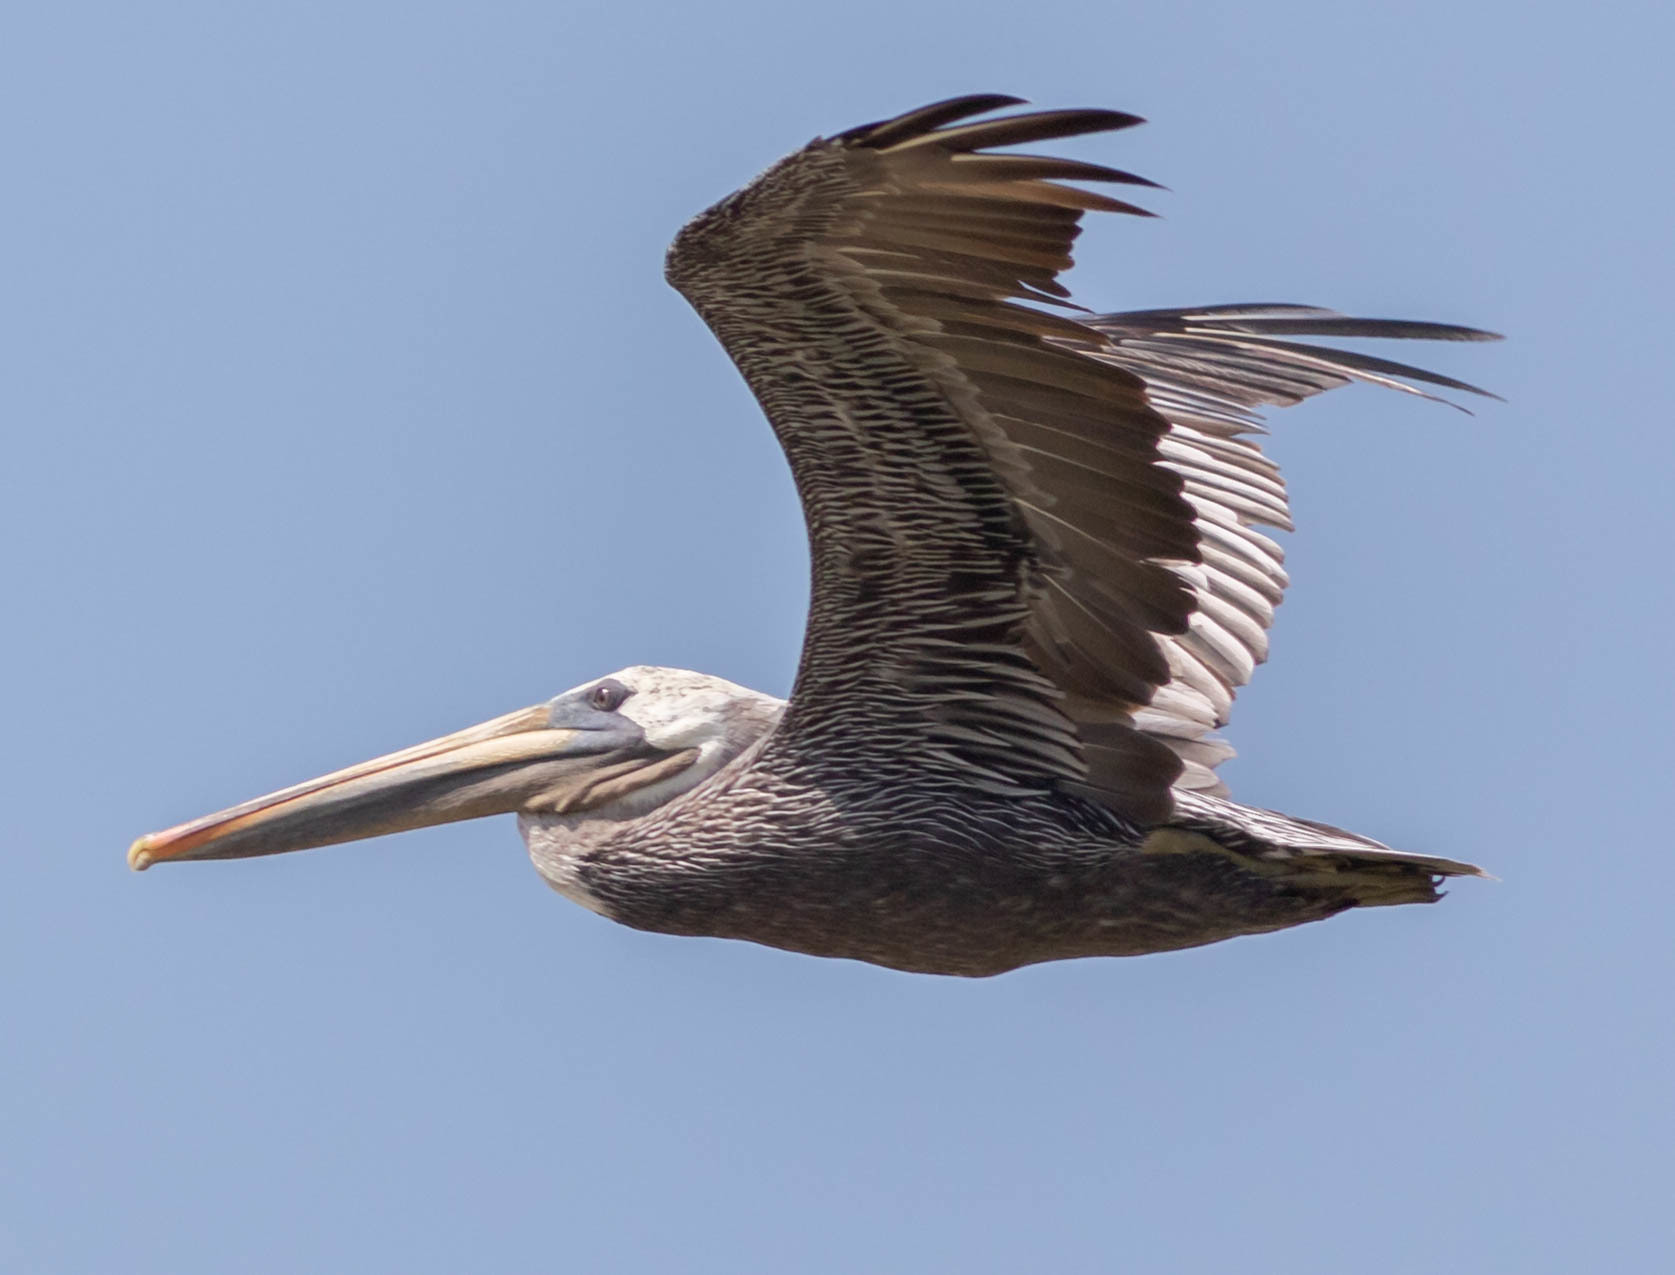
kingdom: Animalia
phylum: Chordata
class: Aves
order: Pelecaniformes
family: Pelecanidae
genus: Pelecanus
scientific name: Pelecanus occidentalis
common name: Brown pelican
